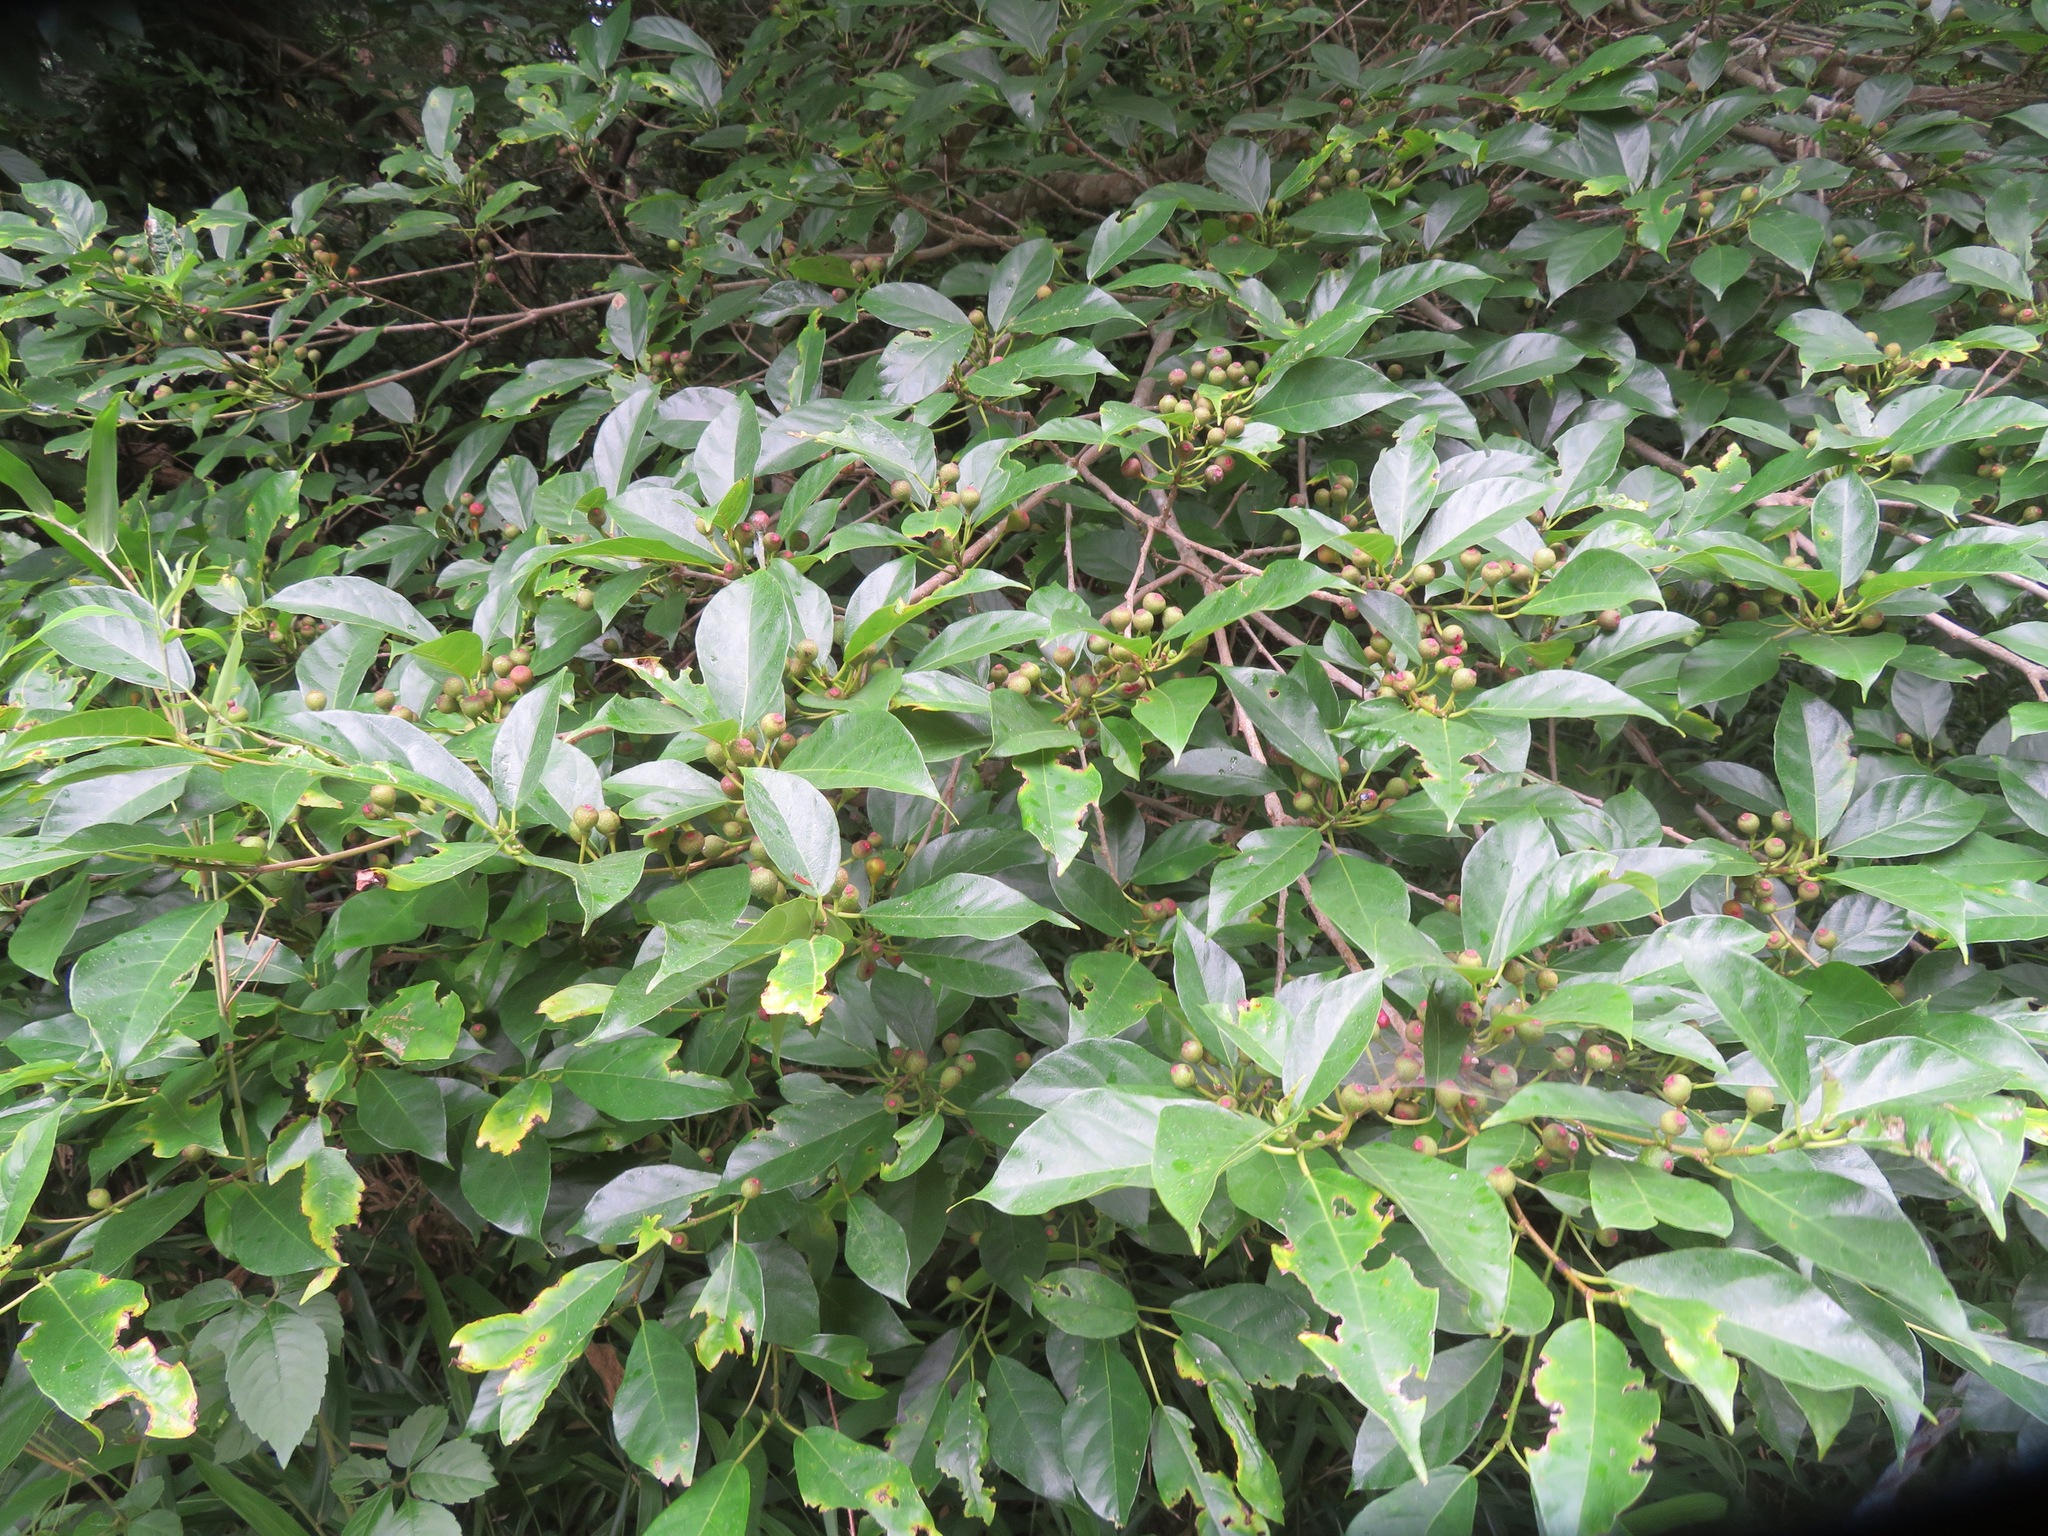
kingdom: Plantae
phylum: Tracheophyta
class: Magnoliopsida
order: Rosales
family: Moraceae
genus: Ficus
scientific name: Ficus erecta
